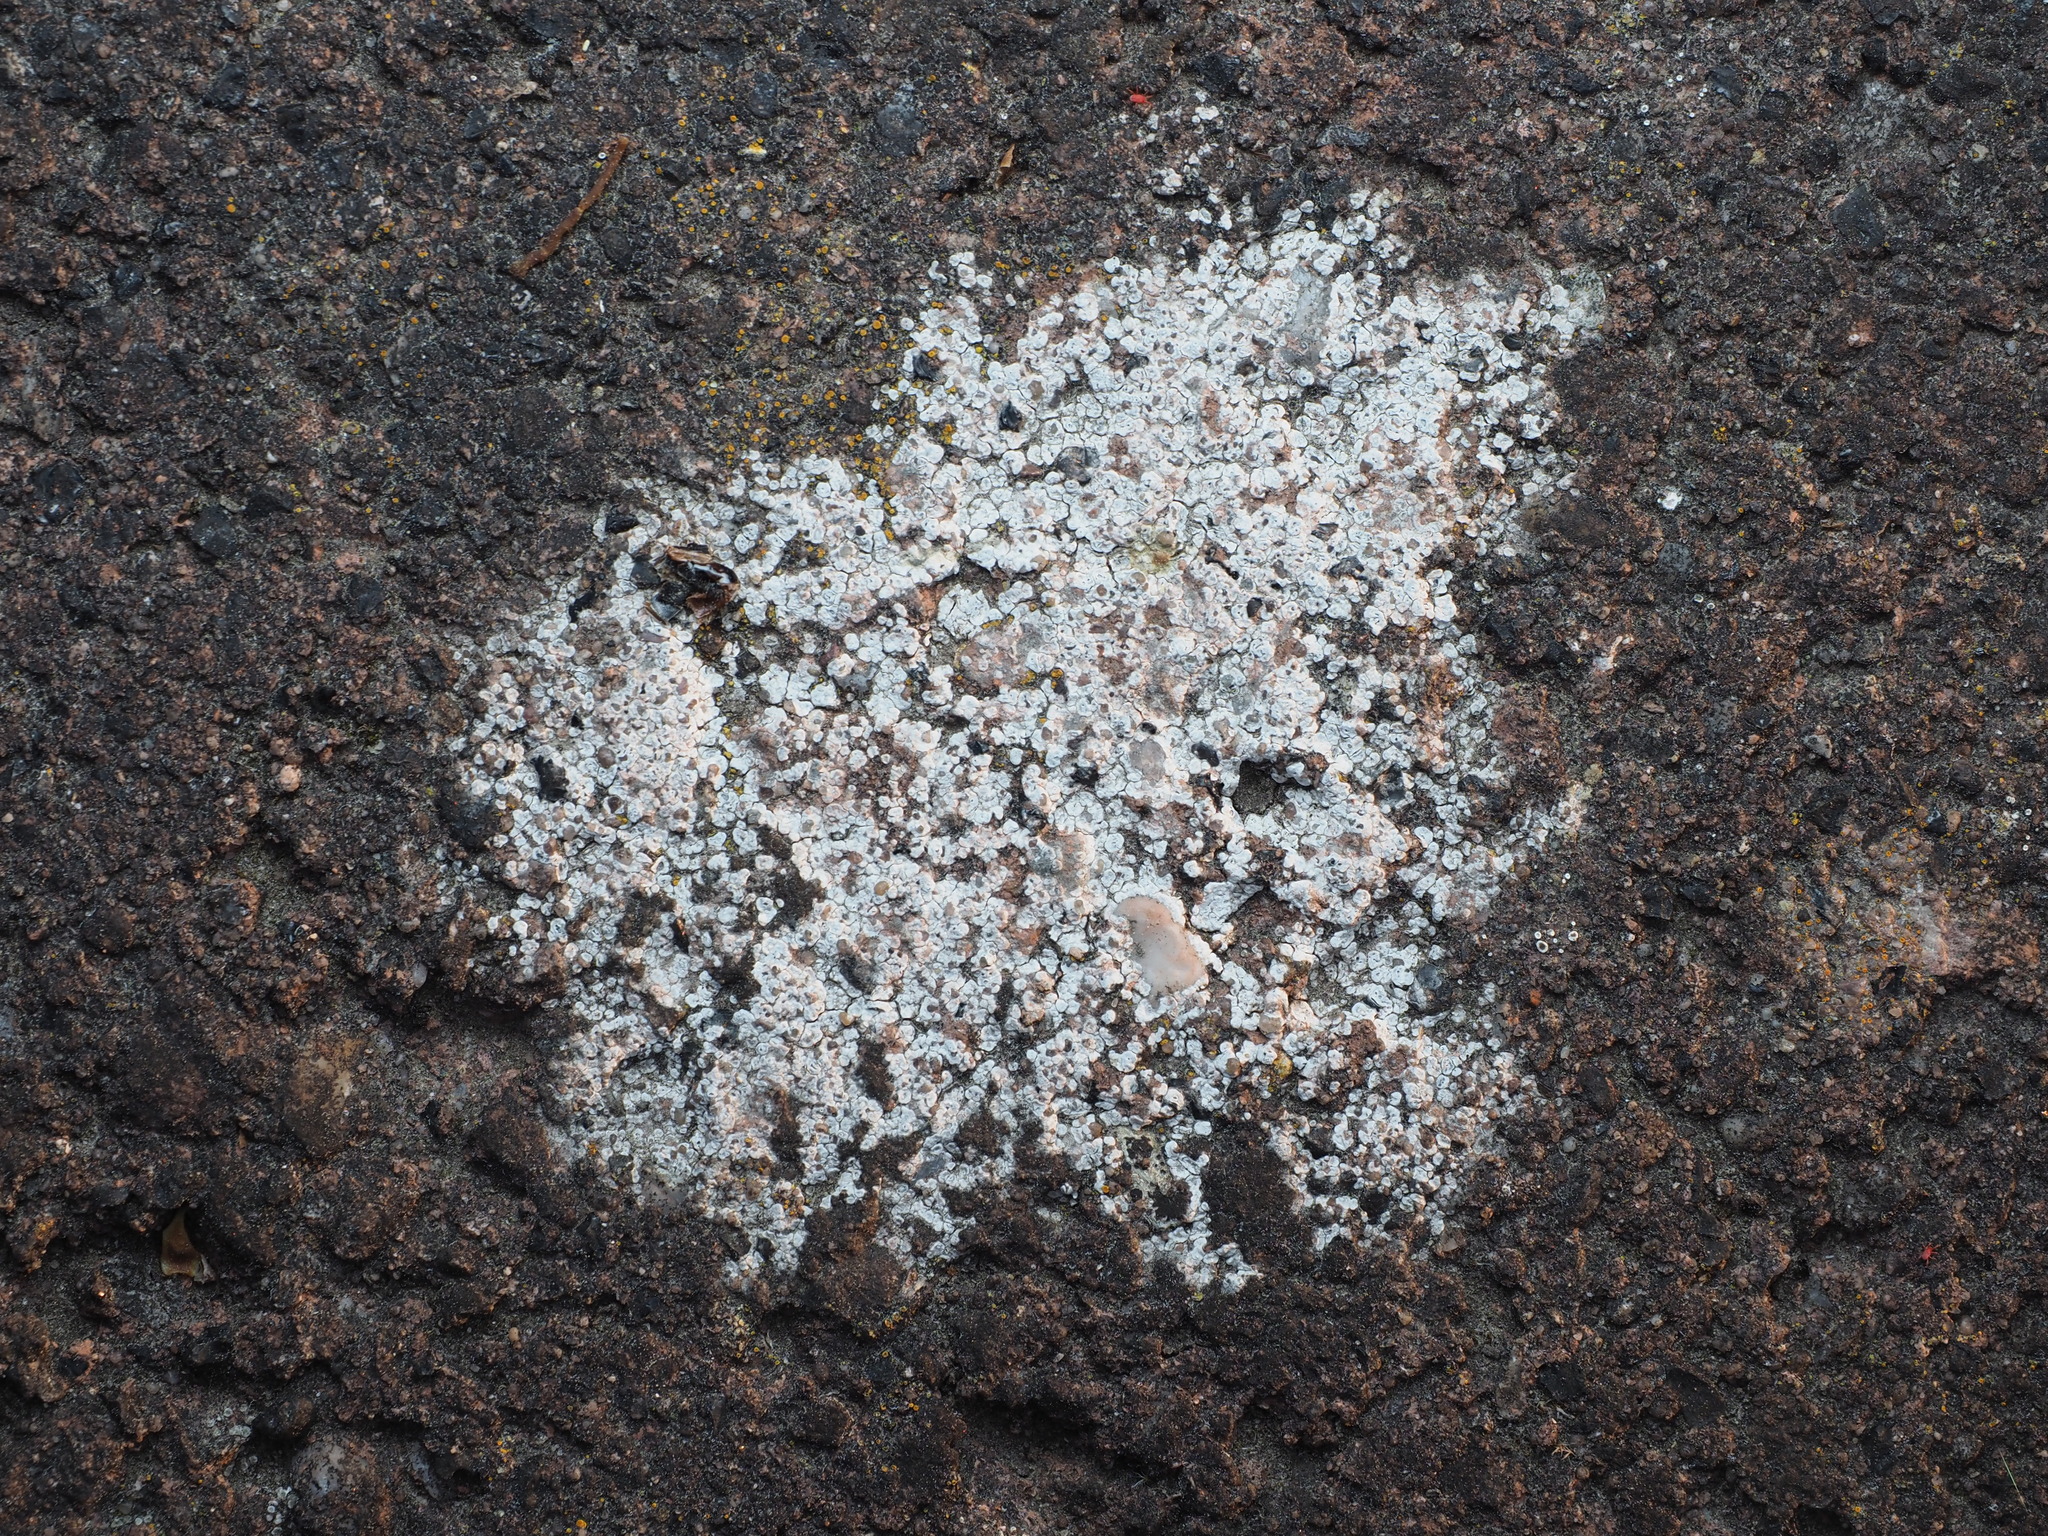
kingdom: Fungi
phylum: Ascomycota
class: Lecanoromycetes
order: Pertusariales
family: Megasporaceae
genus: Circinaria
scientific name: Circinaria contorta
